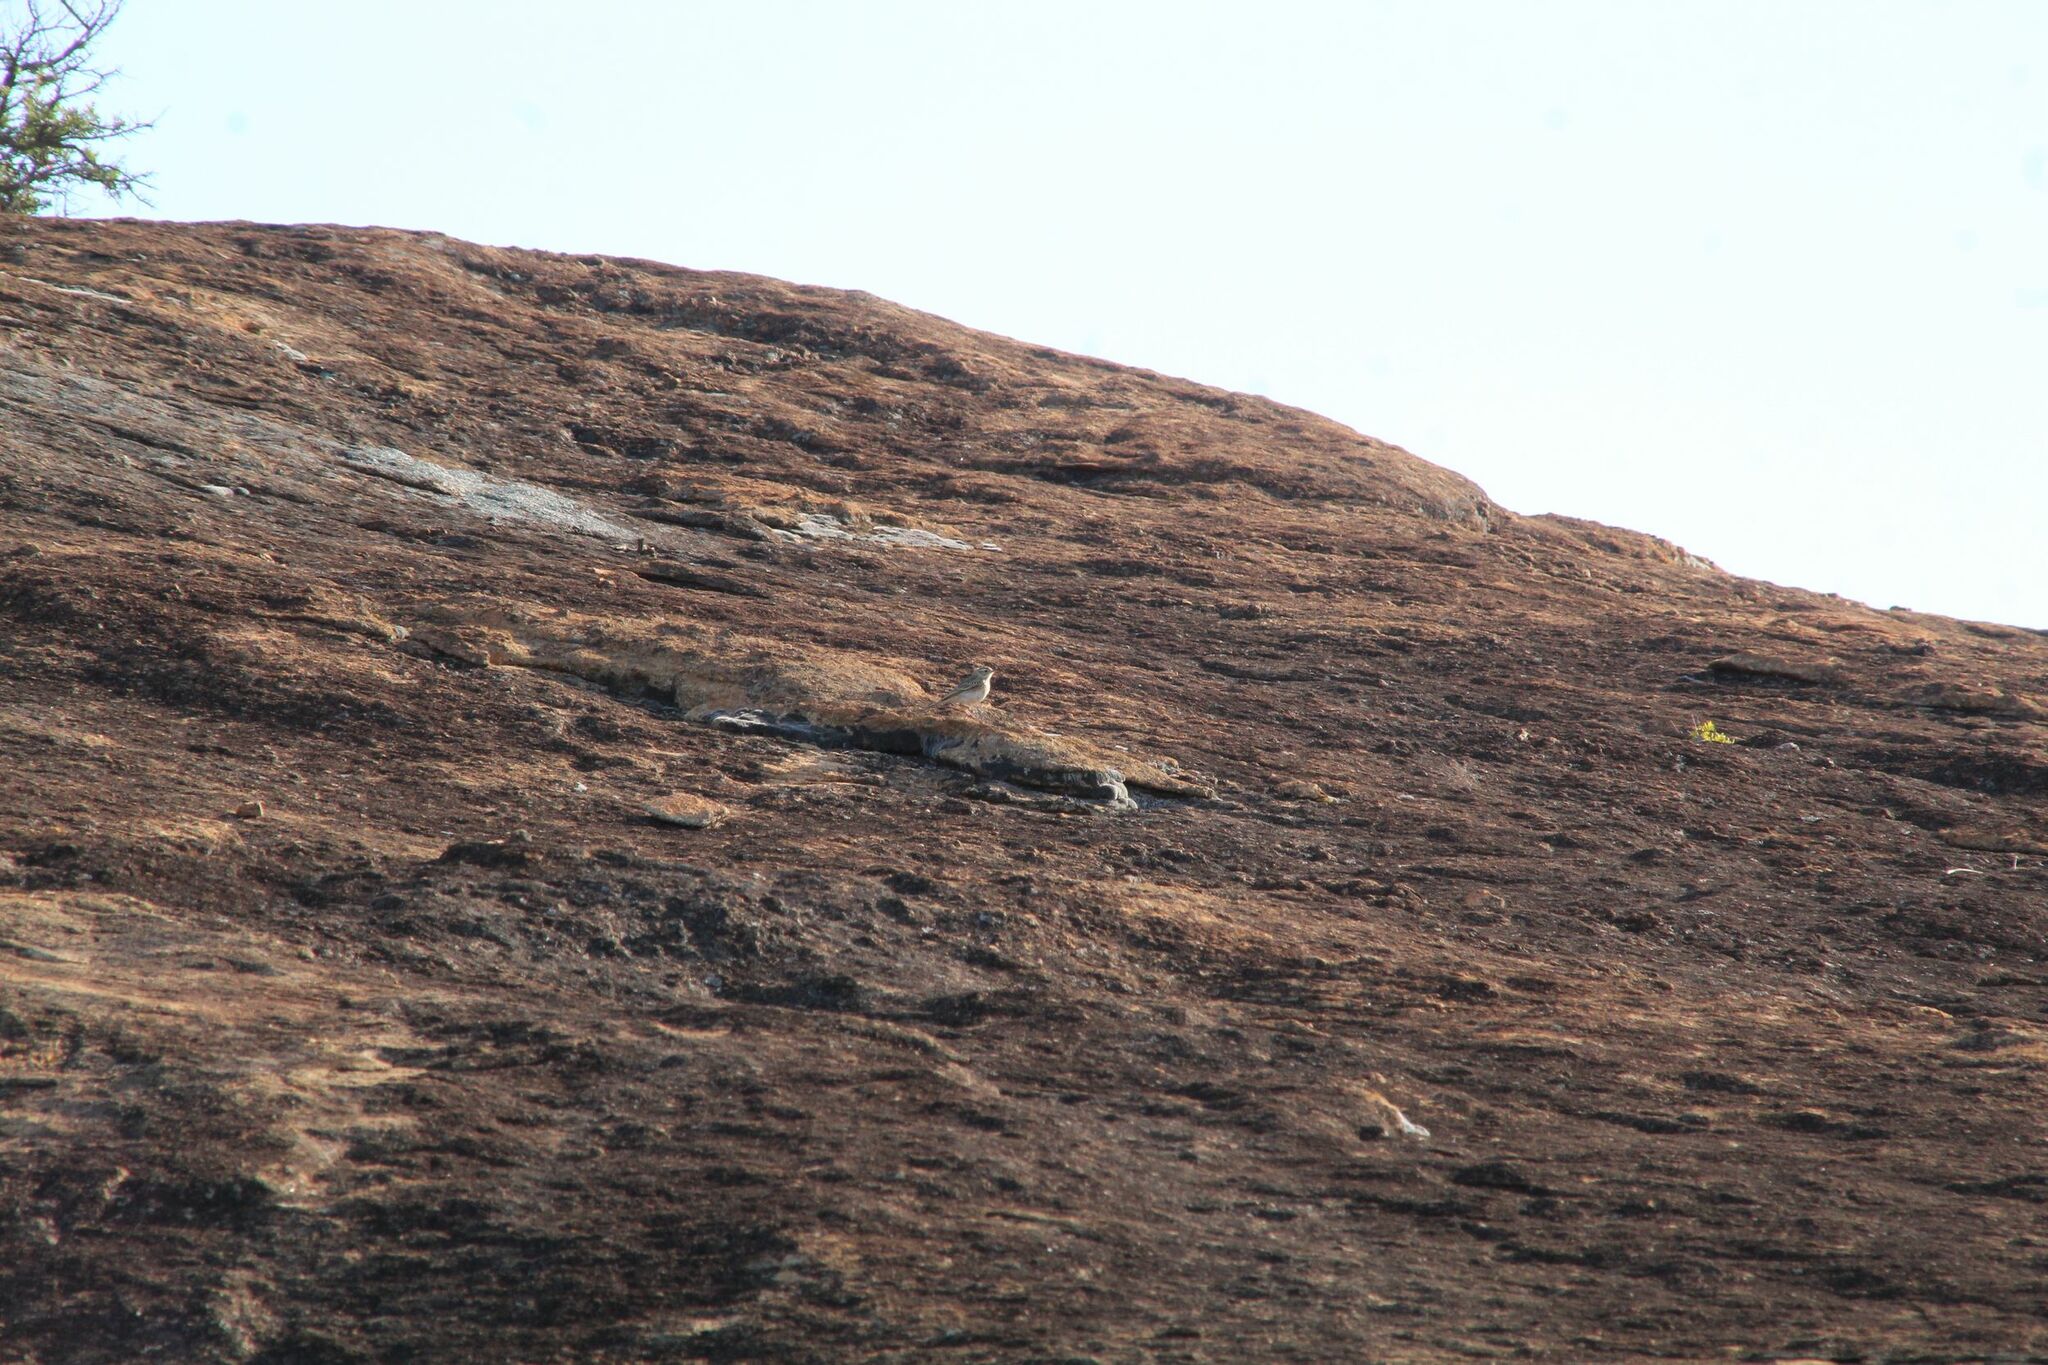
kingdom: Animalia
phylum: Chordata
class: Aves
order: Passeriformes
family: Motacillidae
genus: Anthus
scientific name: Anthus australis
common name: Australian pipit
